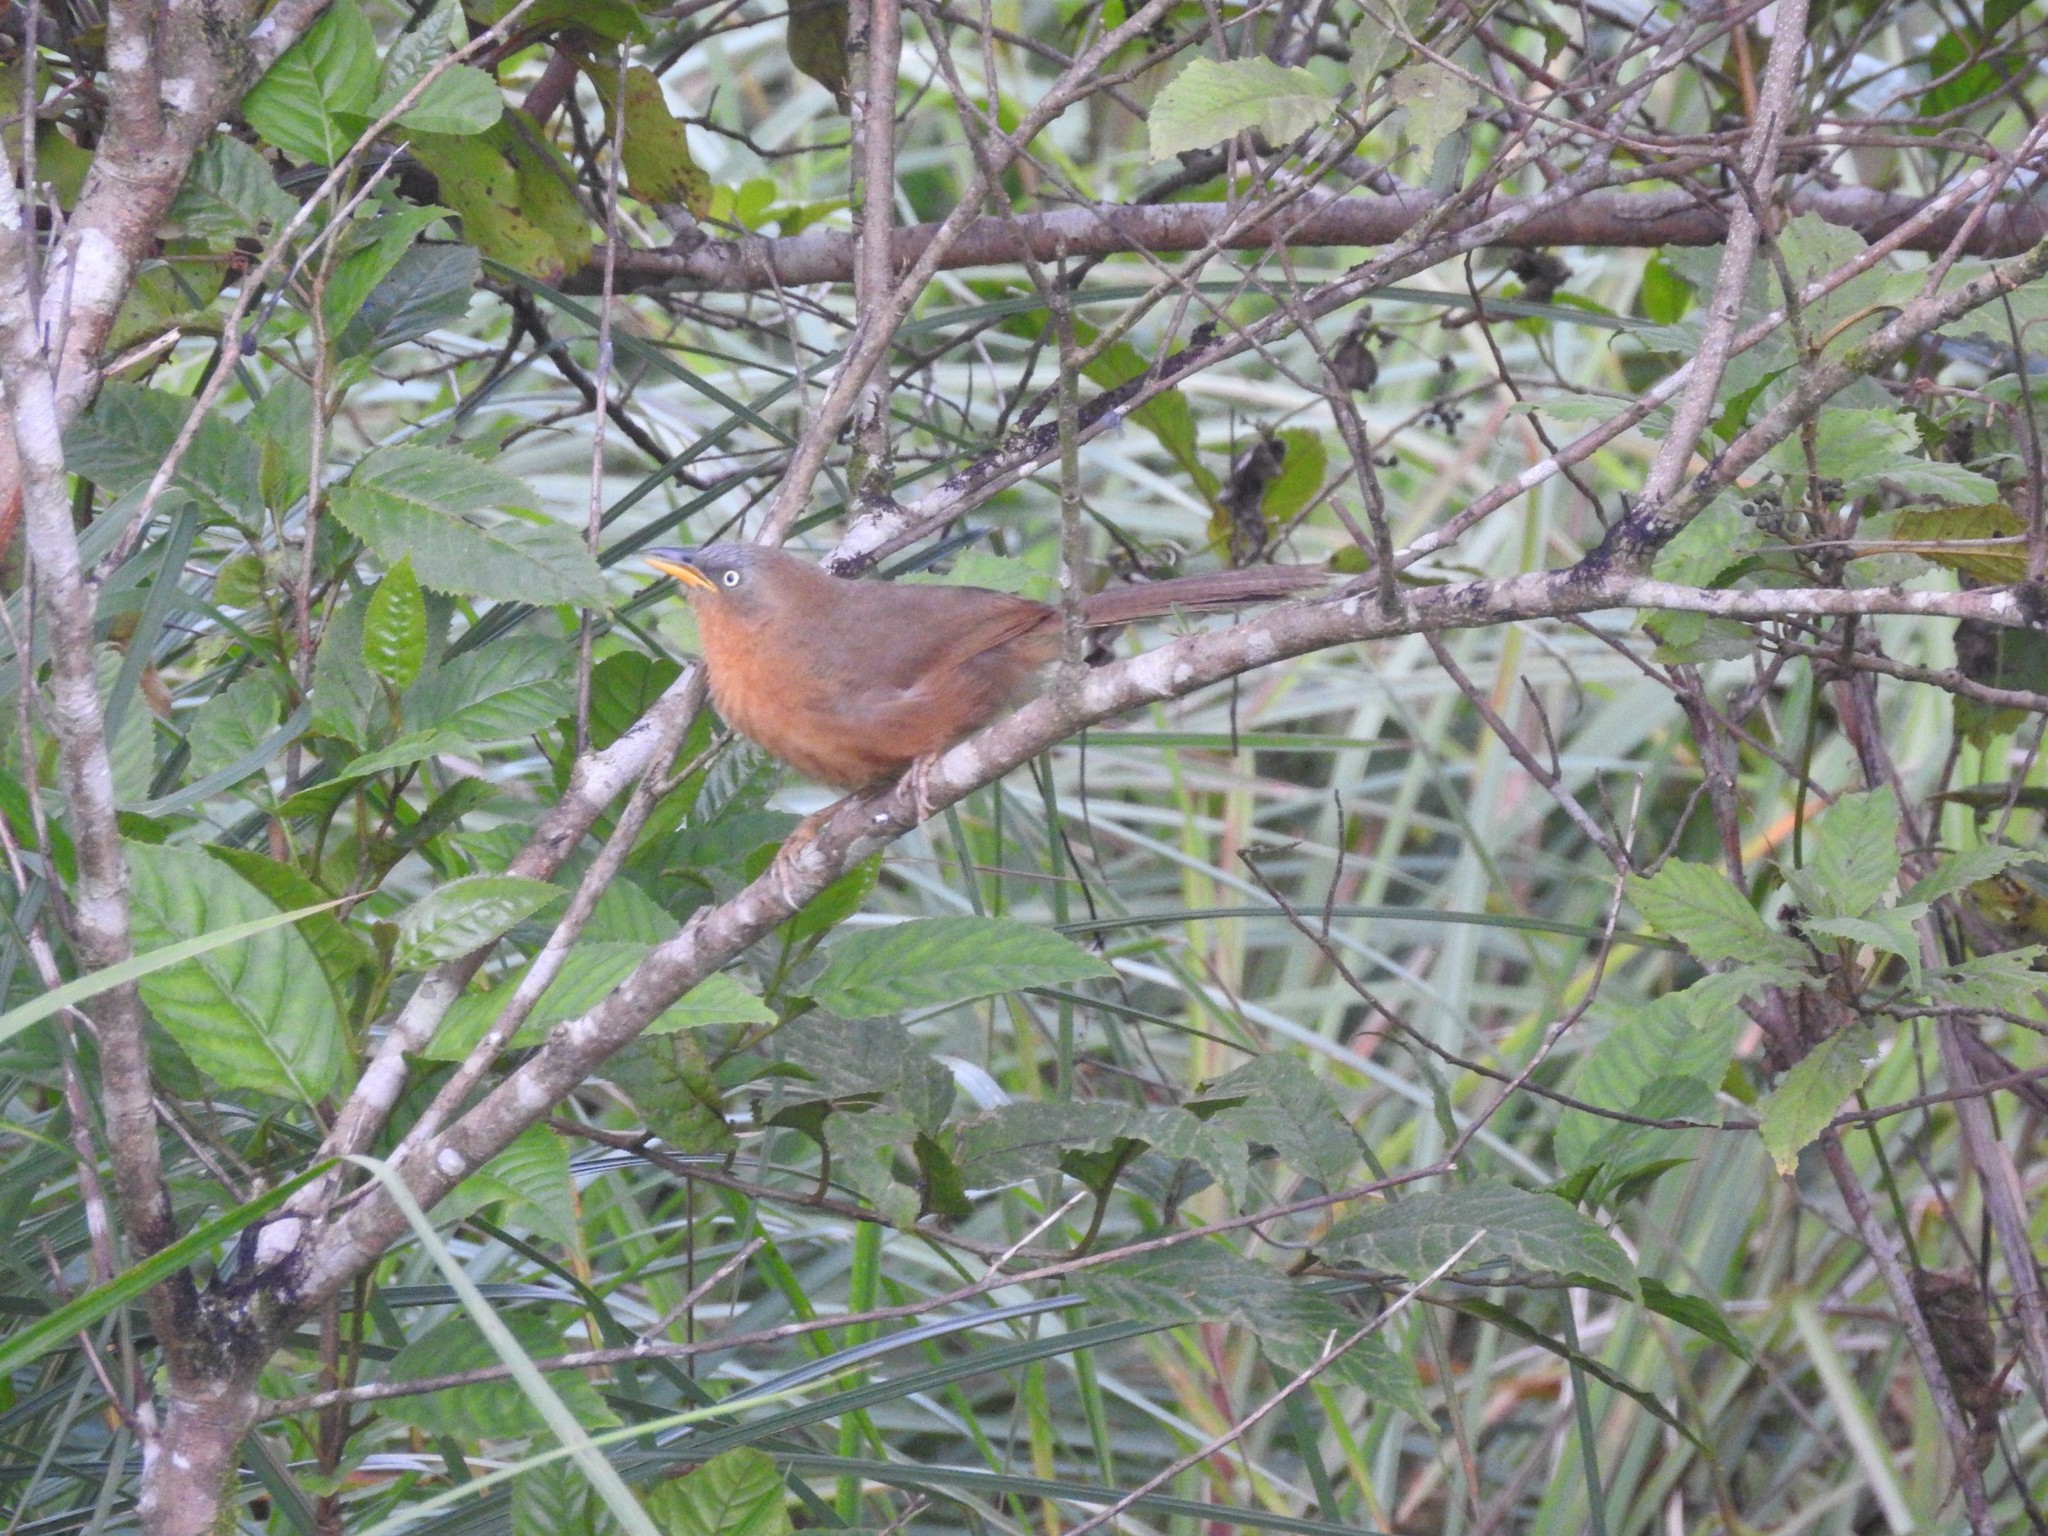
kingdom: Animalia
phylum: Chordata
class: Aves
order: Passeriformes
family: Leiothrichidae
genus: Turdoides
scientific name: Turdoides subrufa
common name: Rufous babbler
